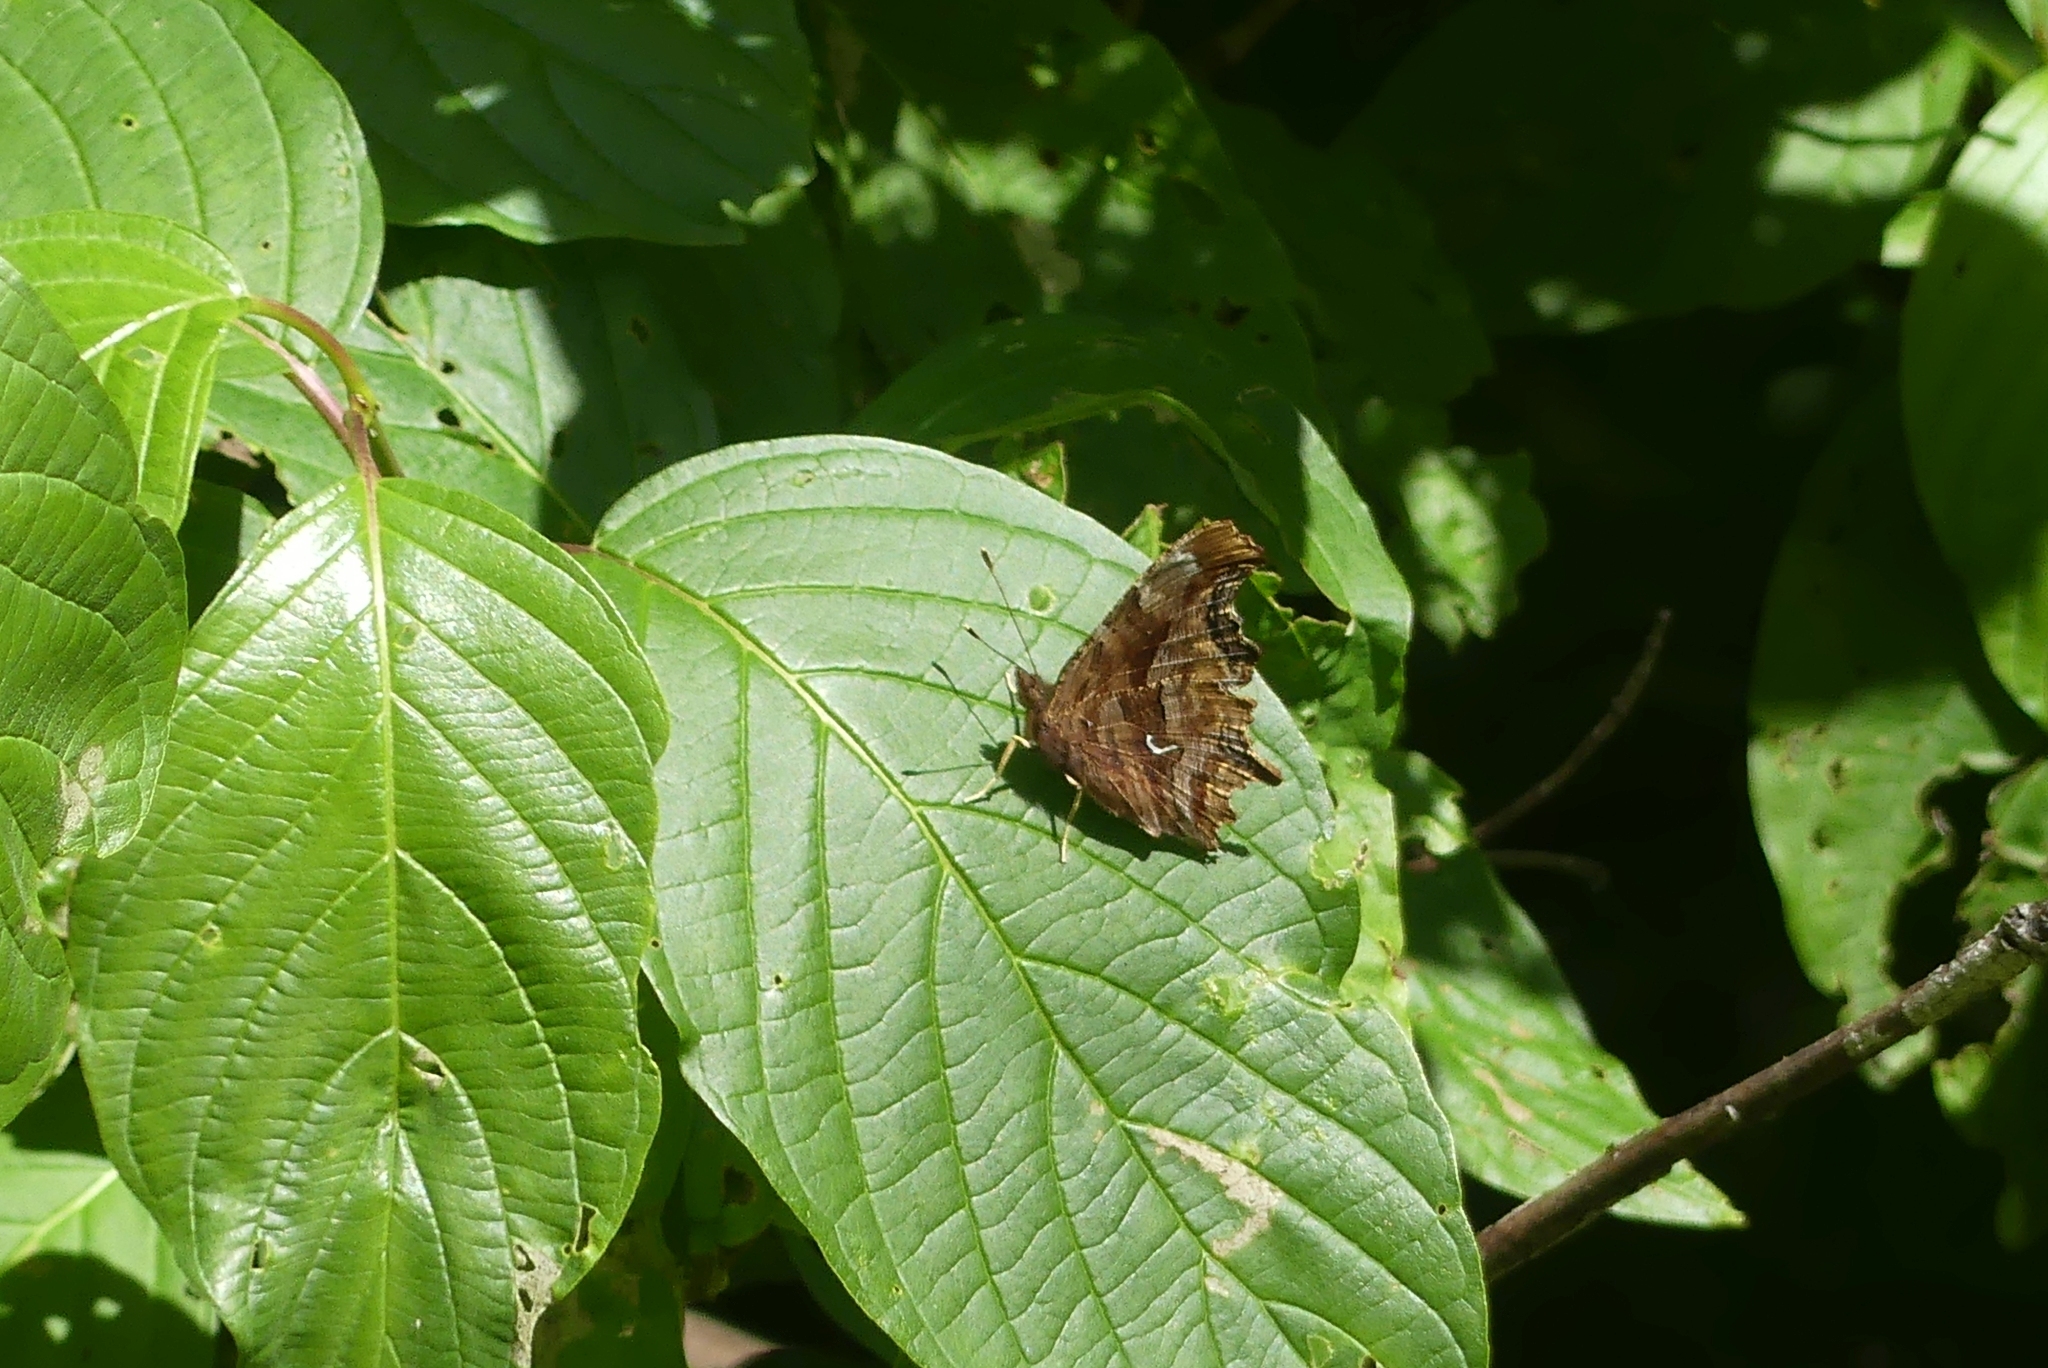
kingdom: Animalia
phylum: Arthropoda
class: Insecta
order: Lepidoptera
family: Nymphalidae
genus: Polygonia
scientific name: Polygonia satyrus
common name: Satyr angle wing
